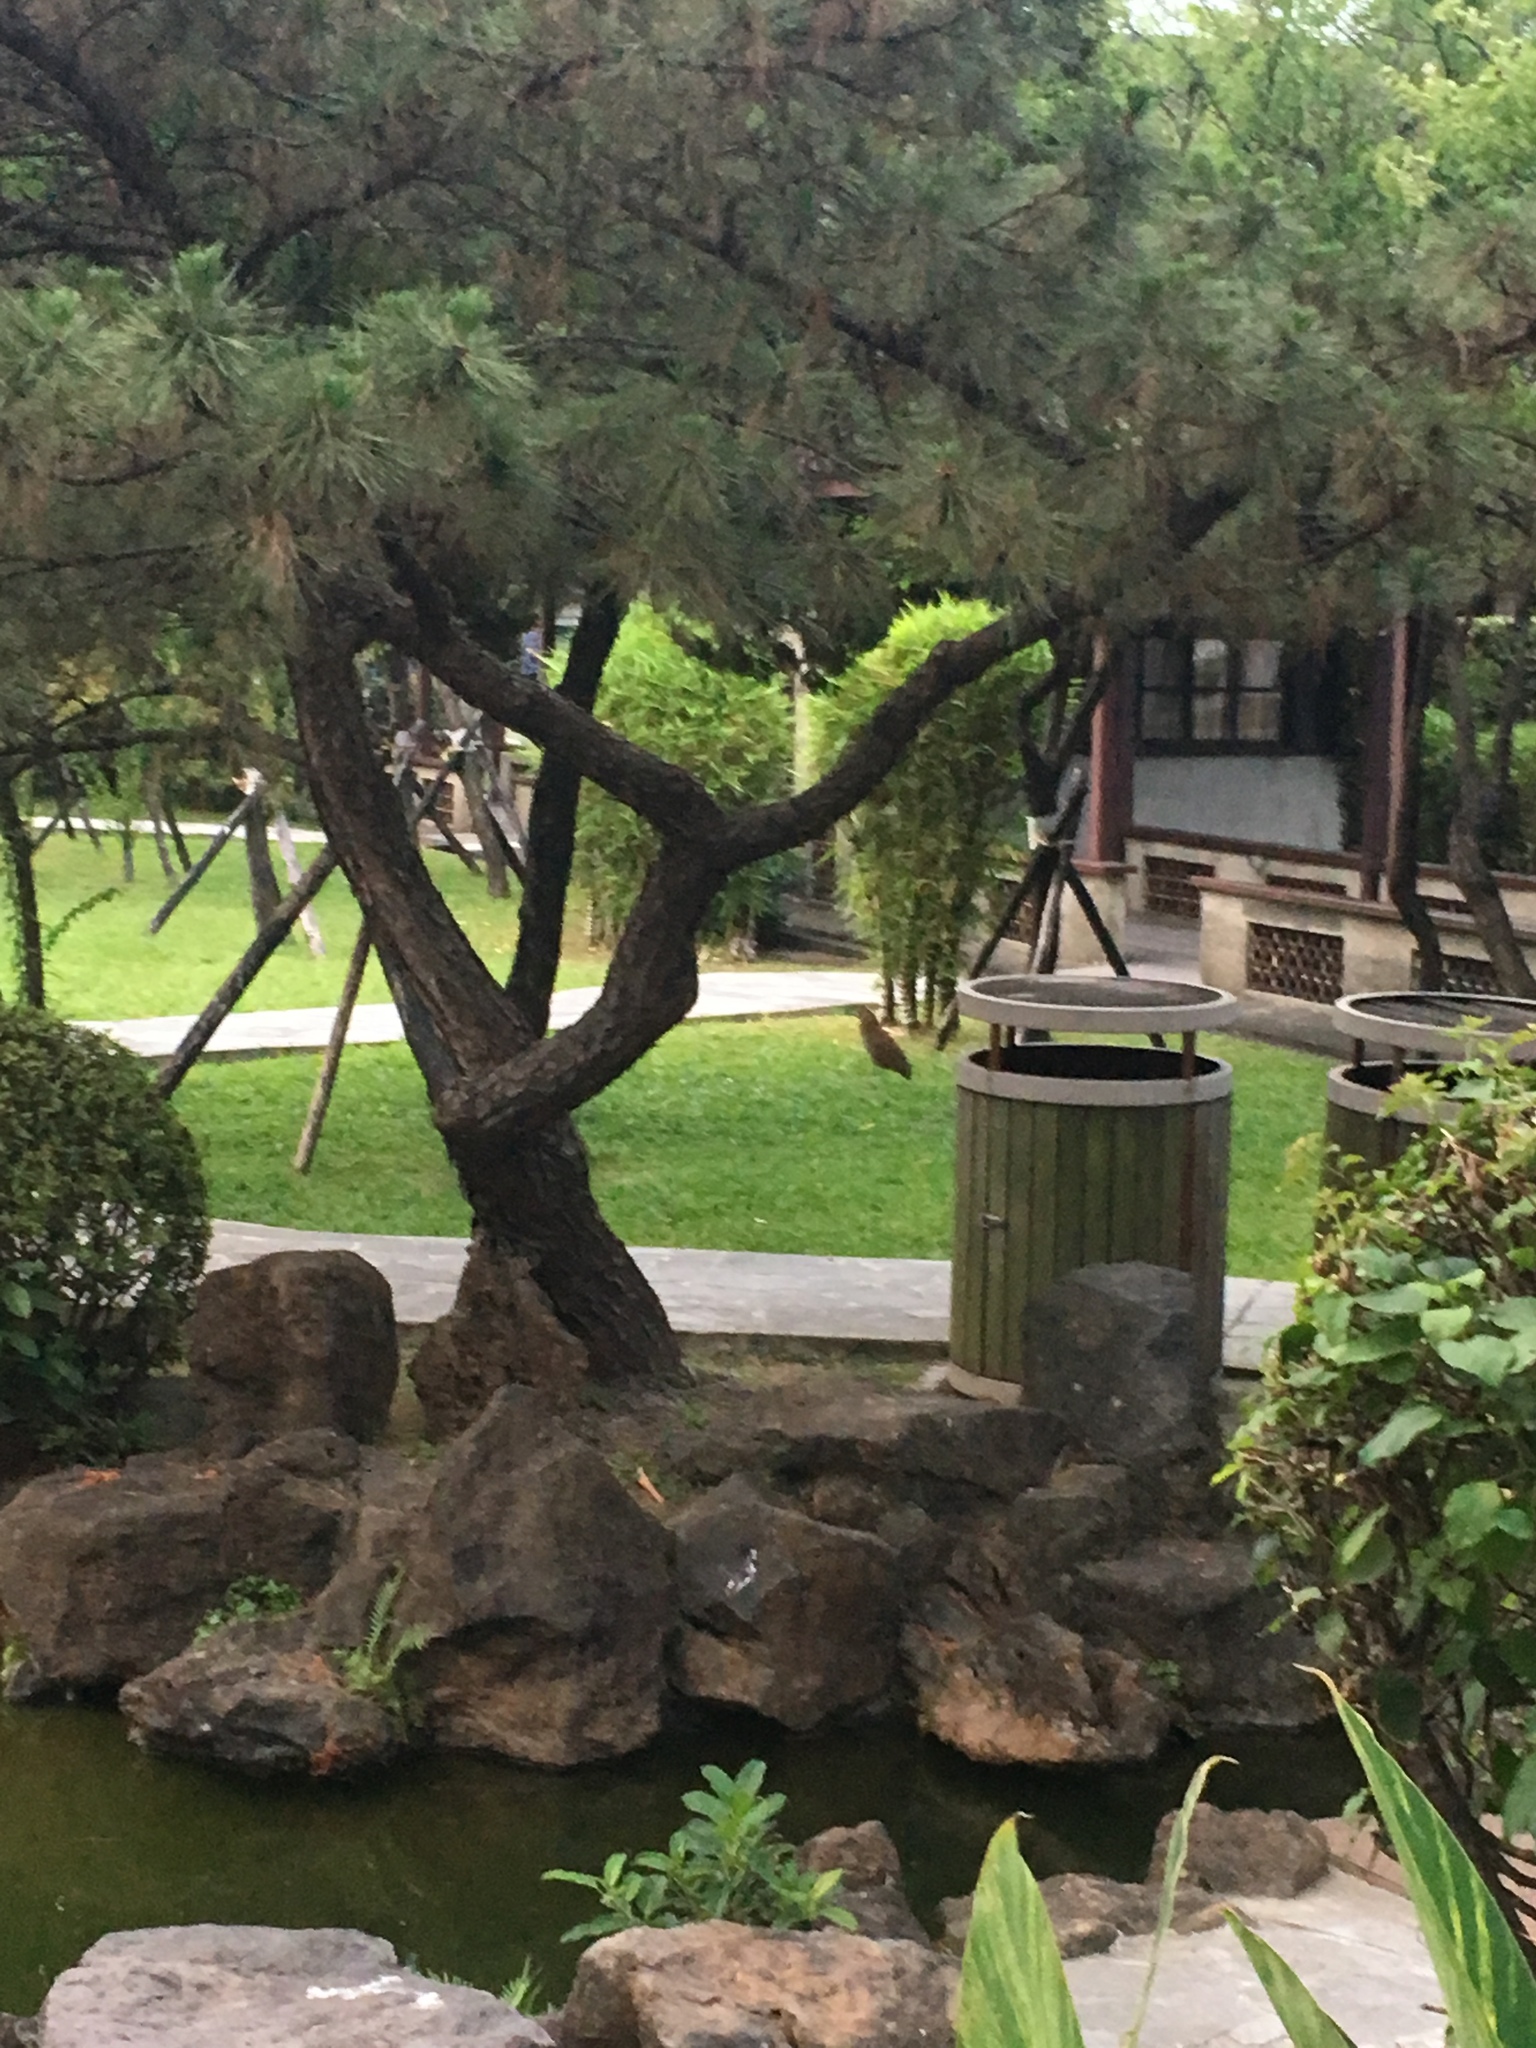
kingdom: Animalia
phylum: Chordata
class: Aves
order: Pelecaniformes
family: Ardeidae
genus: Gorsachius
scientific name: Gorsachius melanolophus
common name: Malayan night heron
